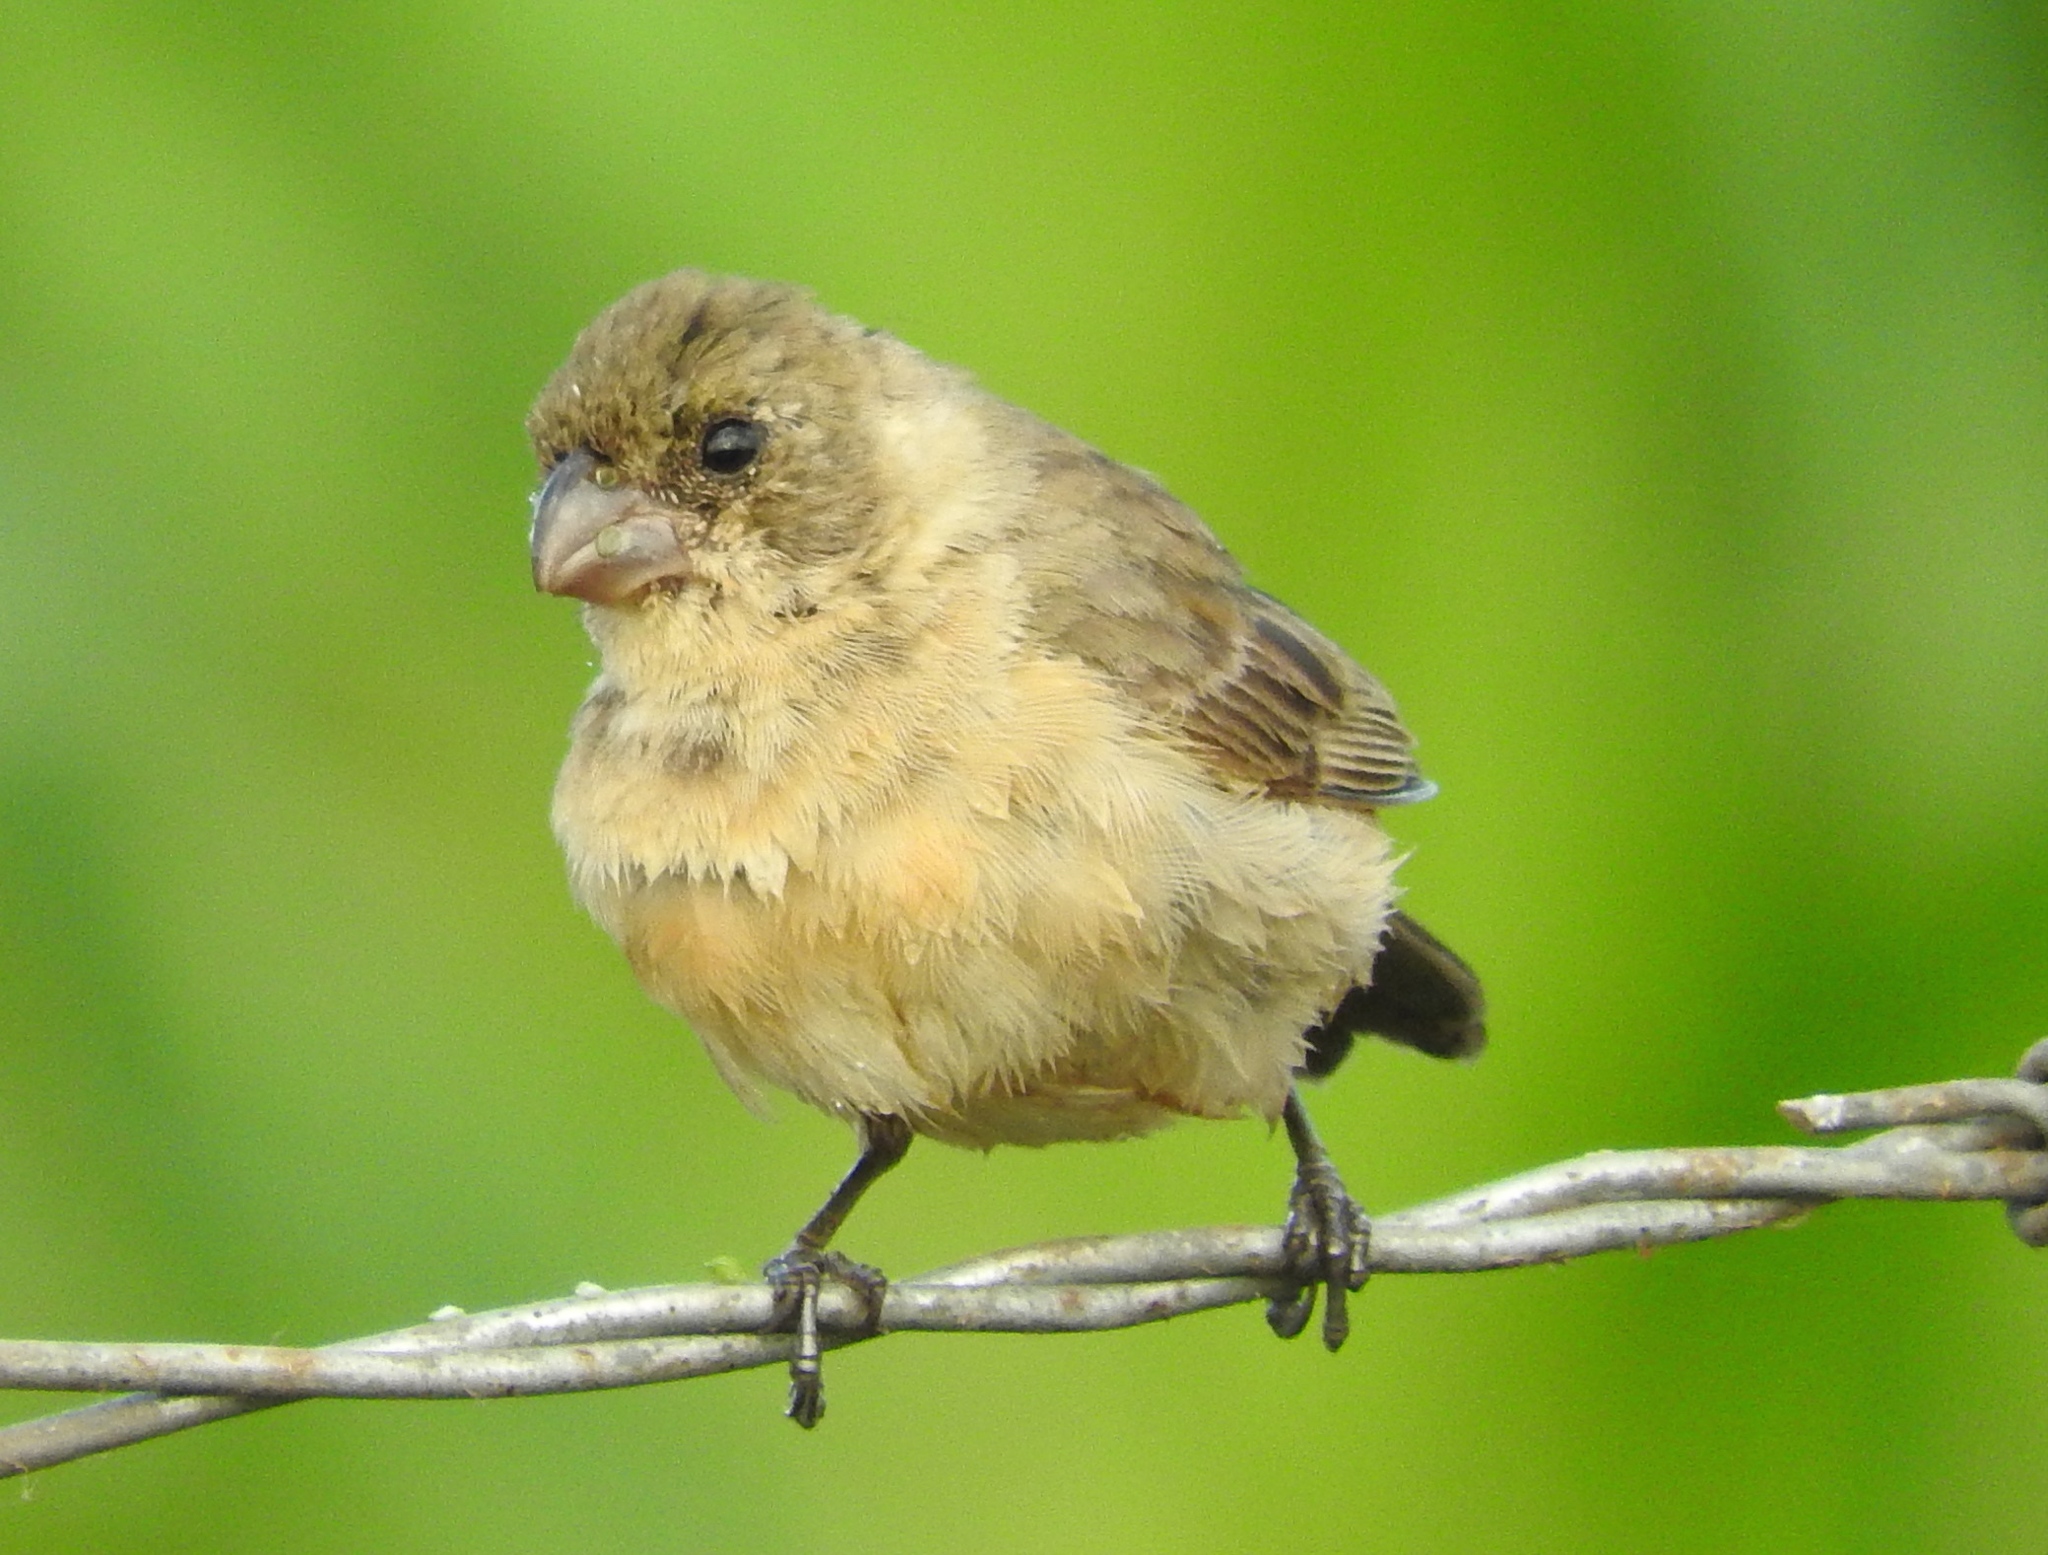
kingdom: Animalia
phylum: Chordata
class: Aves
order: Passeriformes
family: Thraupidae
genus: Sporophila
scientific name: Sporophila torqueola
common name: White-collared seedeater
